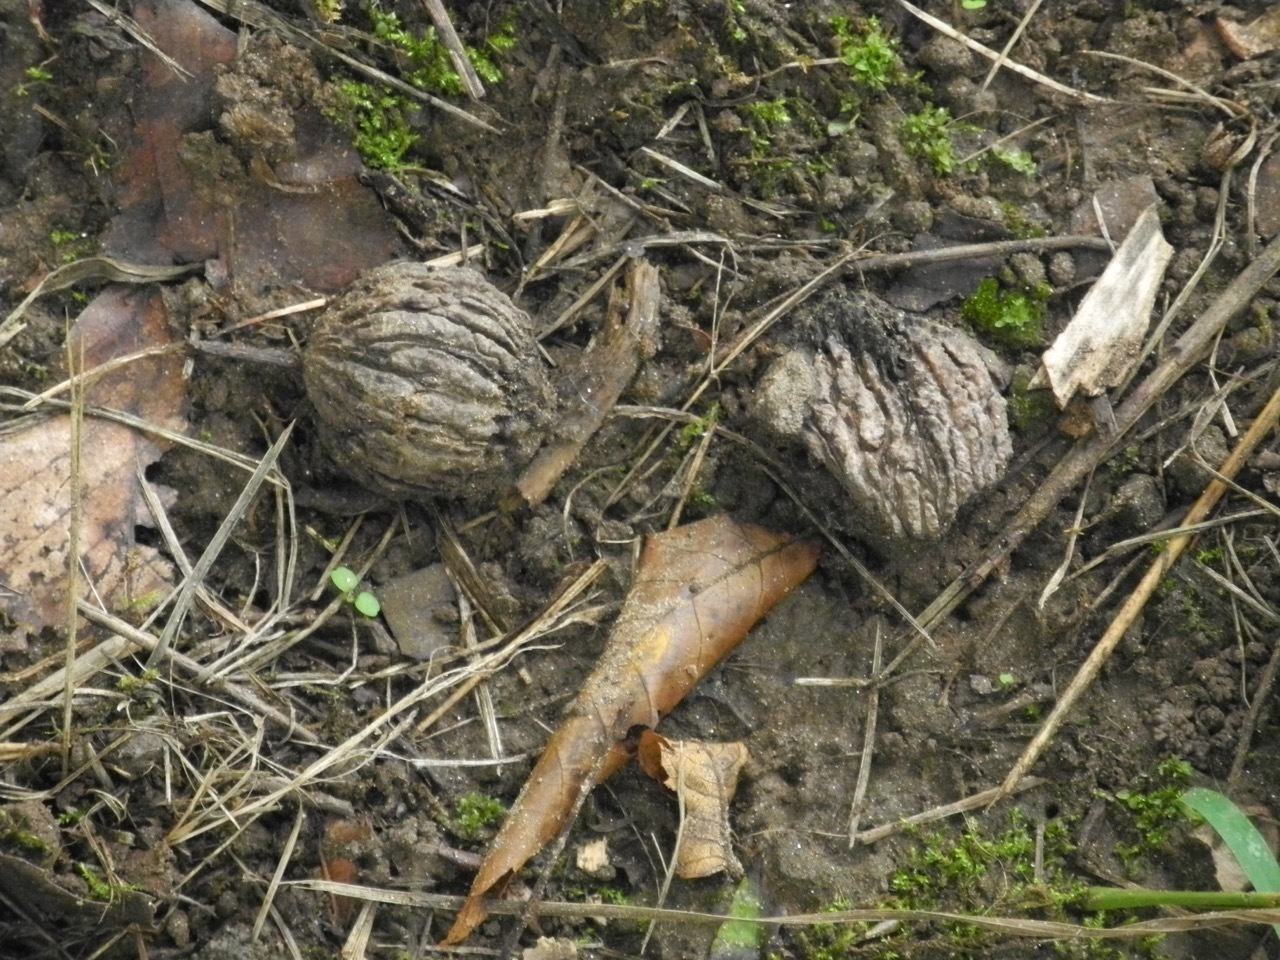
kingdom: Plantae
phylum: Tracheophyta
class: Magnoliopsida
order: Fagales
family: Juglandaceae
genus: Juglans
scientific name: Juglans nigra
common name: Black walnut
